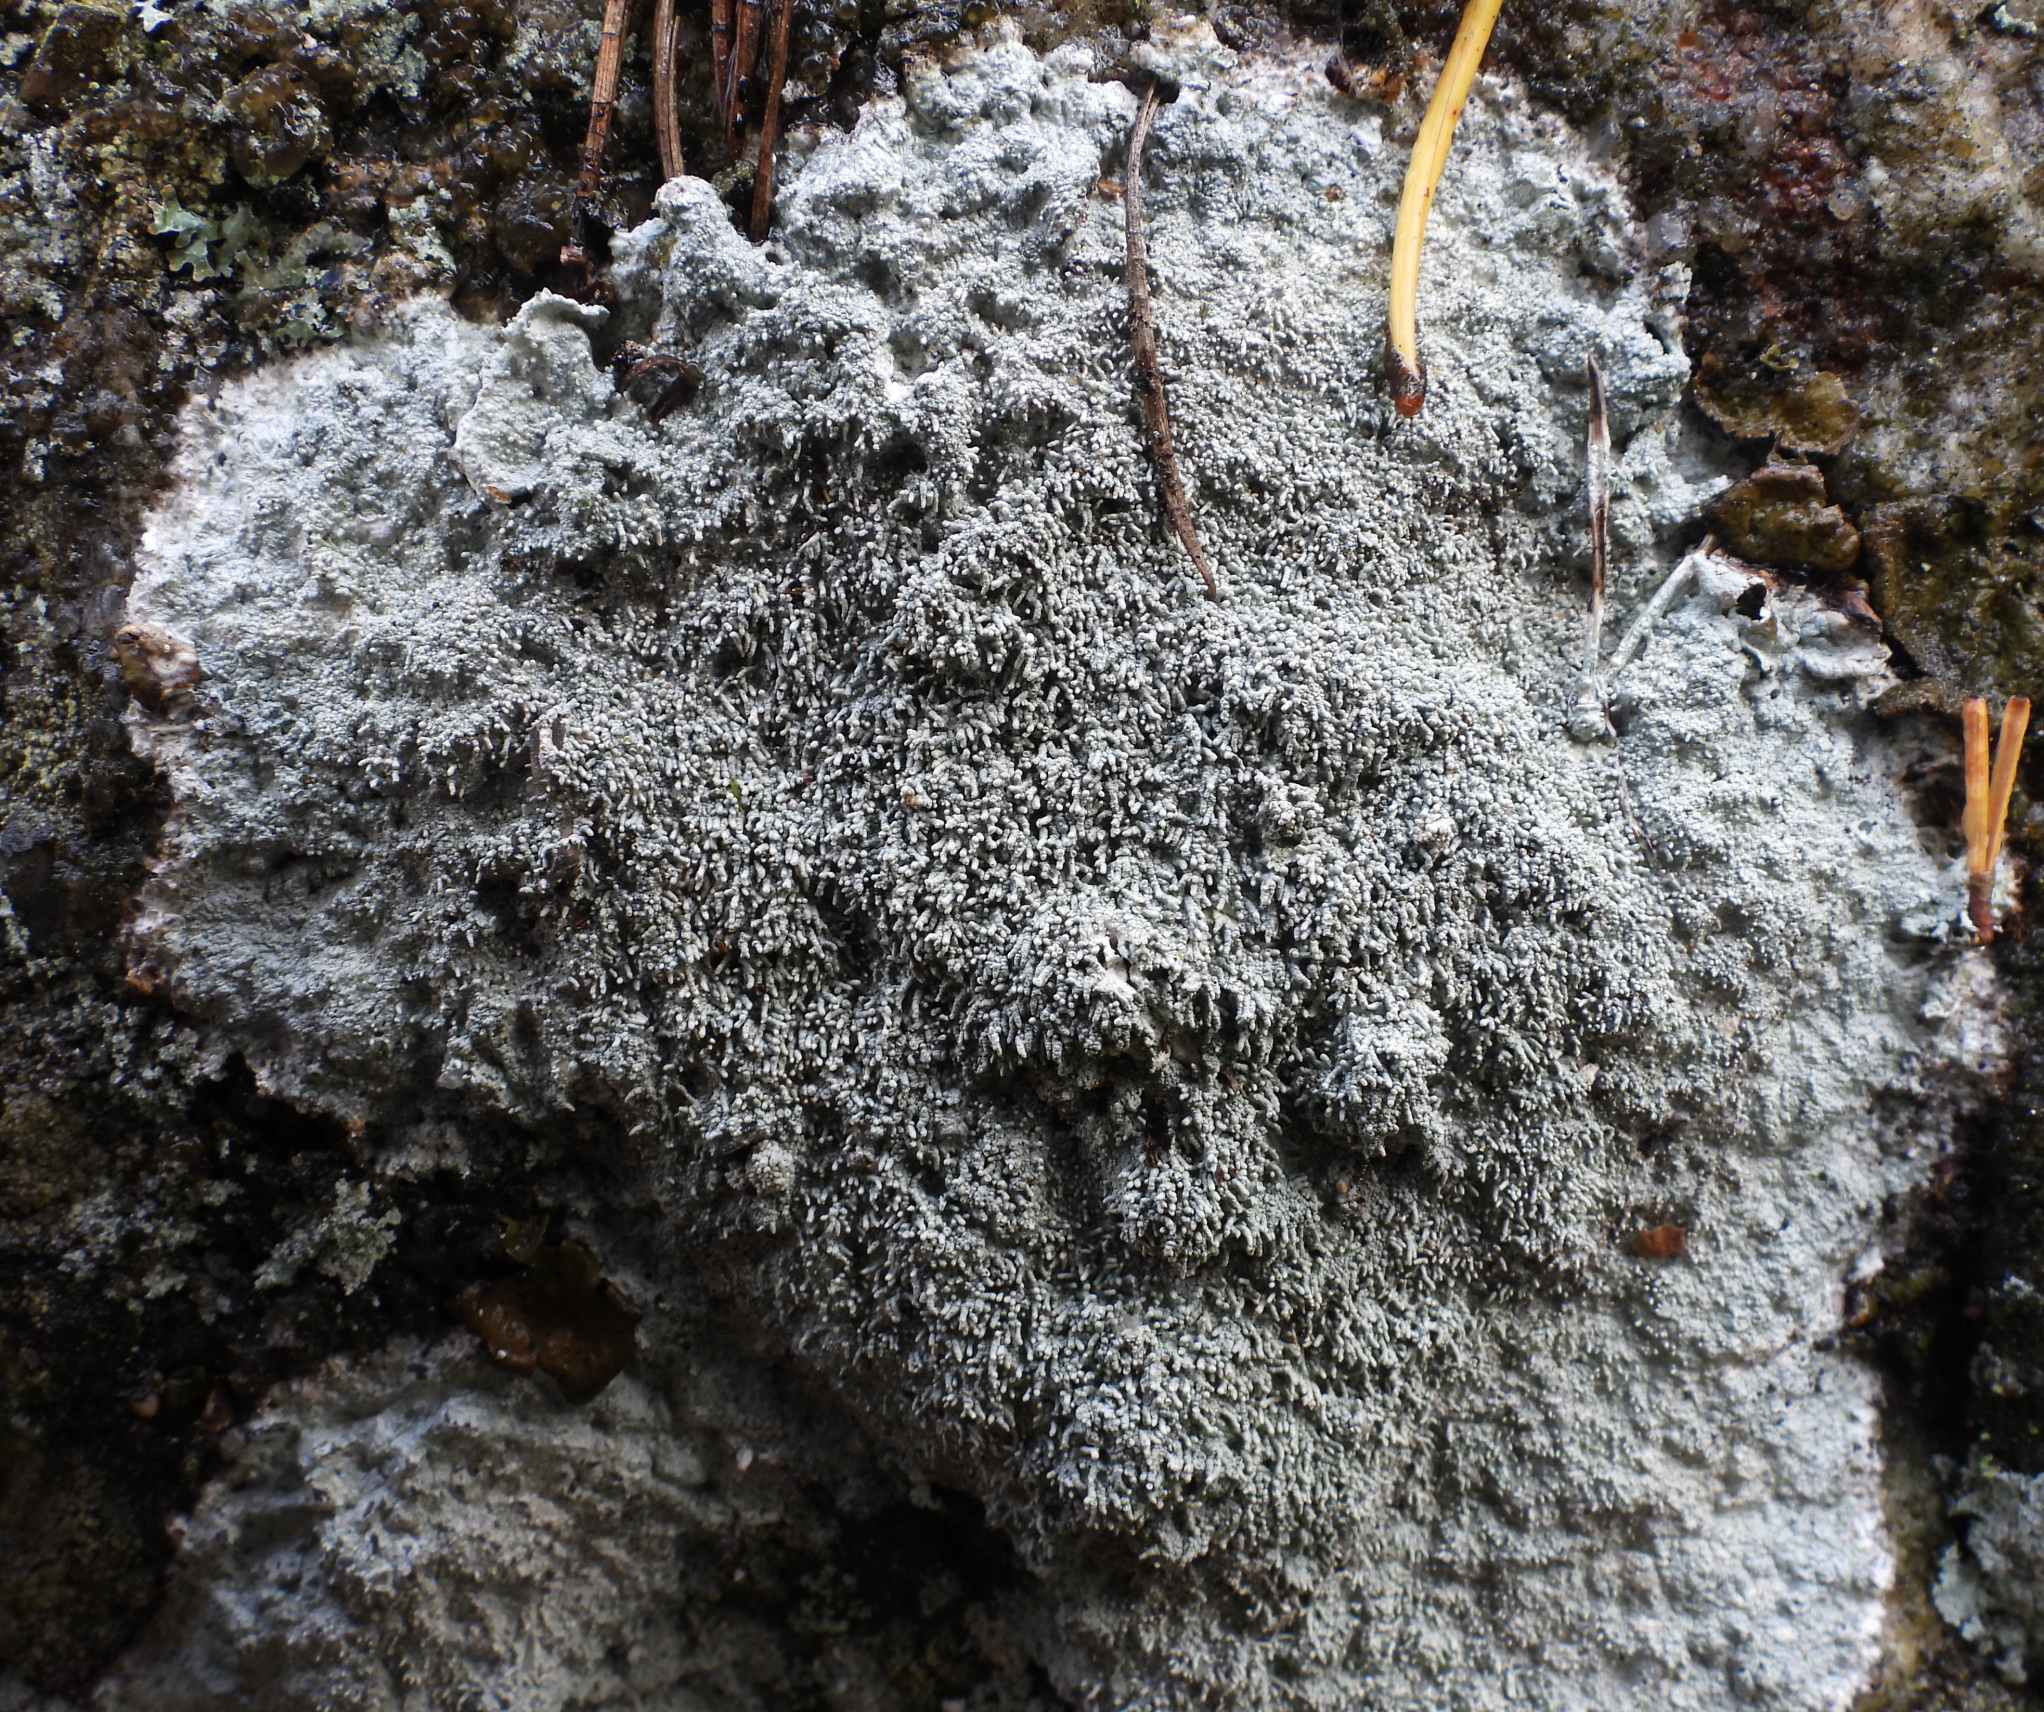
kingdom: Fungi
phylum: Ascomycota
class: Lecanoromycetes
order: Pertusariales
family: Pertusariaceae
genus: Lepra
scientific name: Lepra corallina
